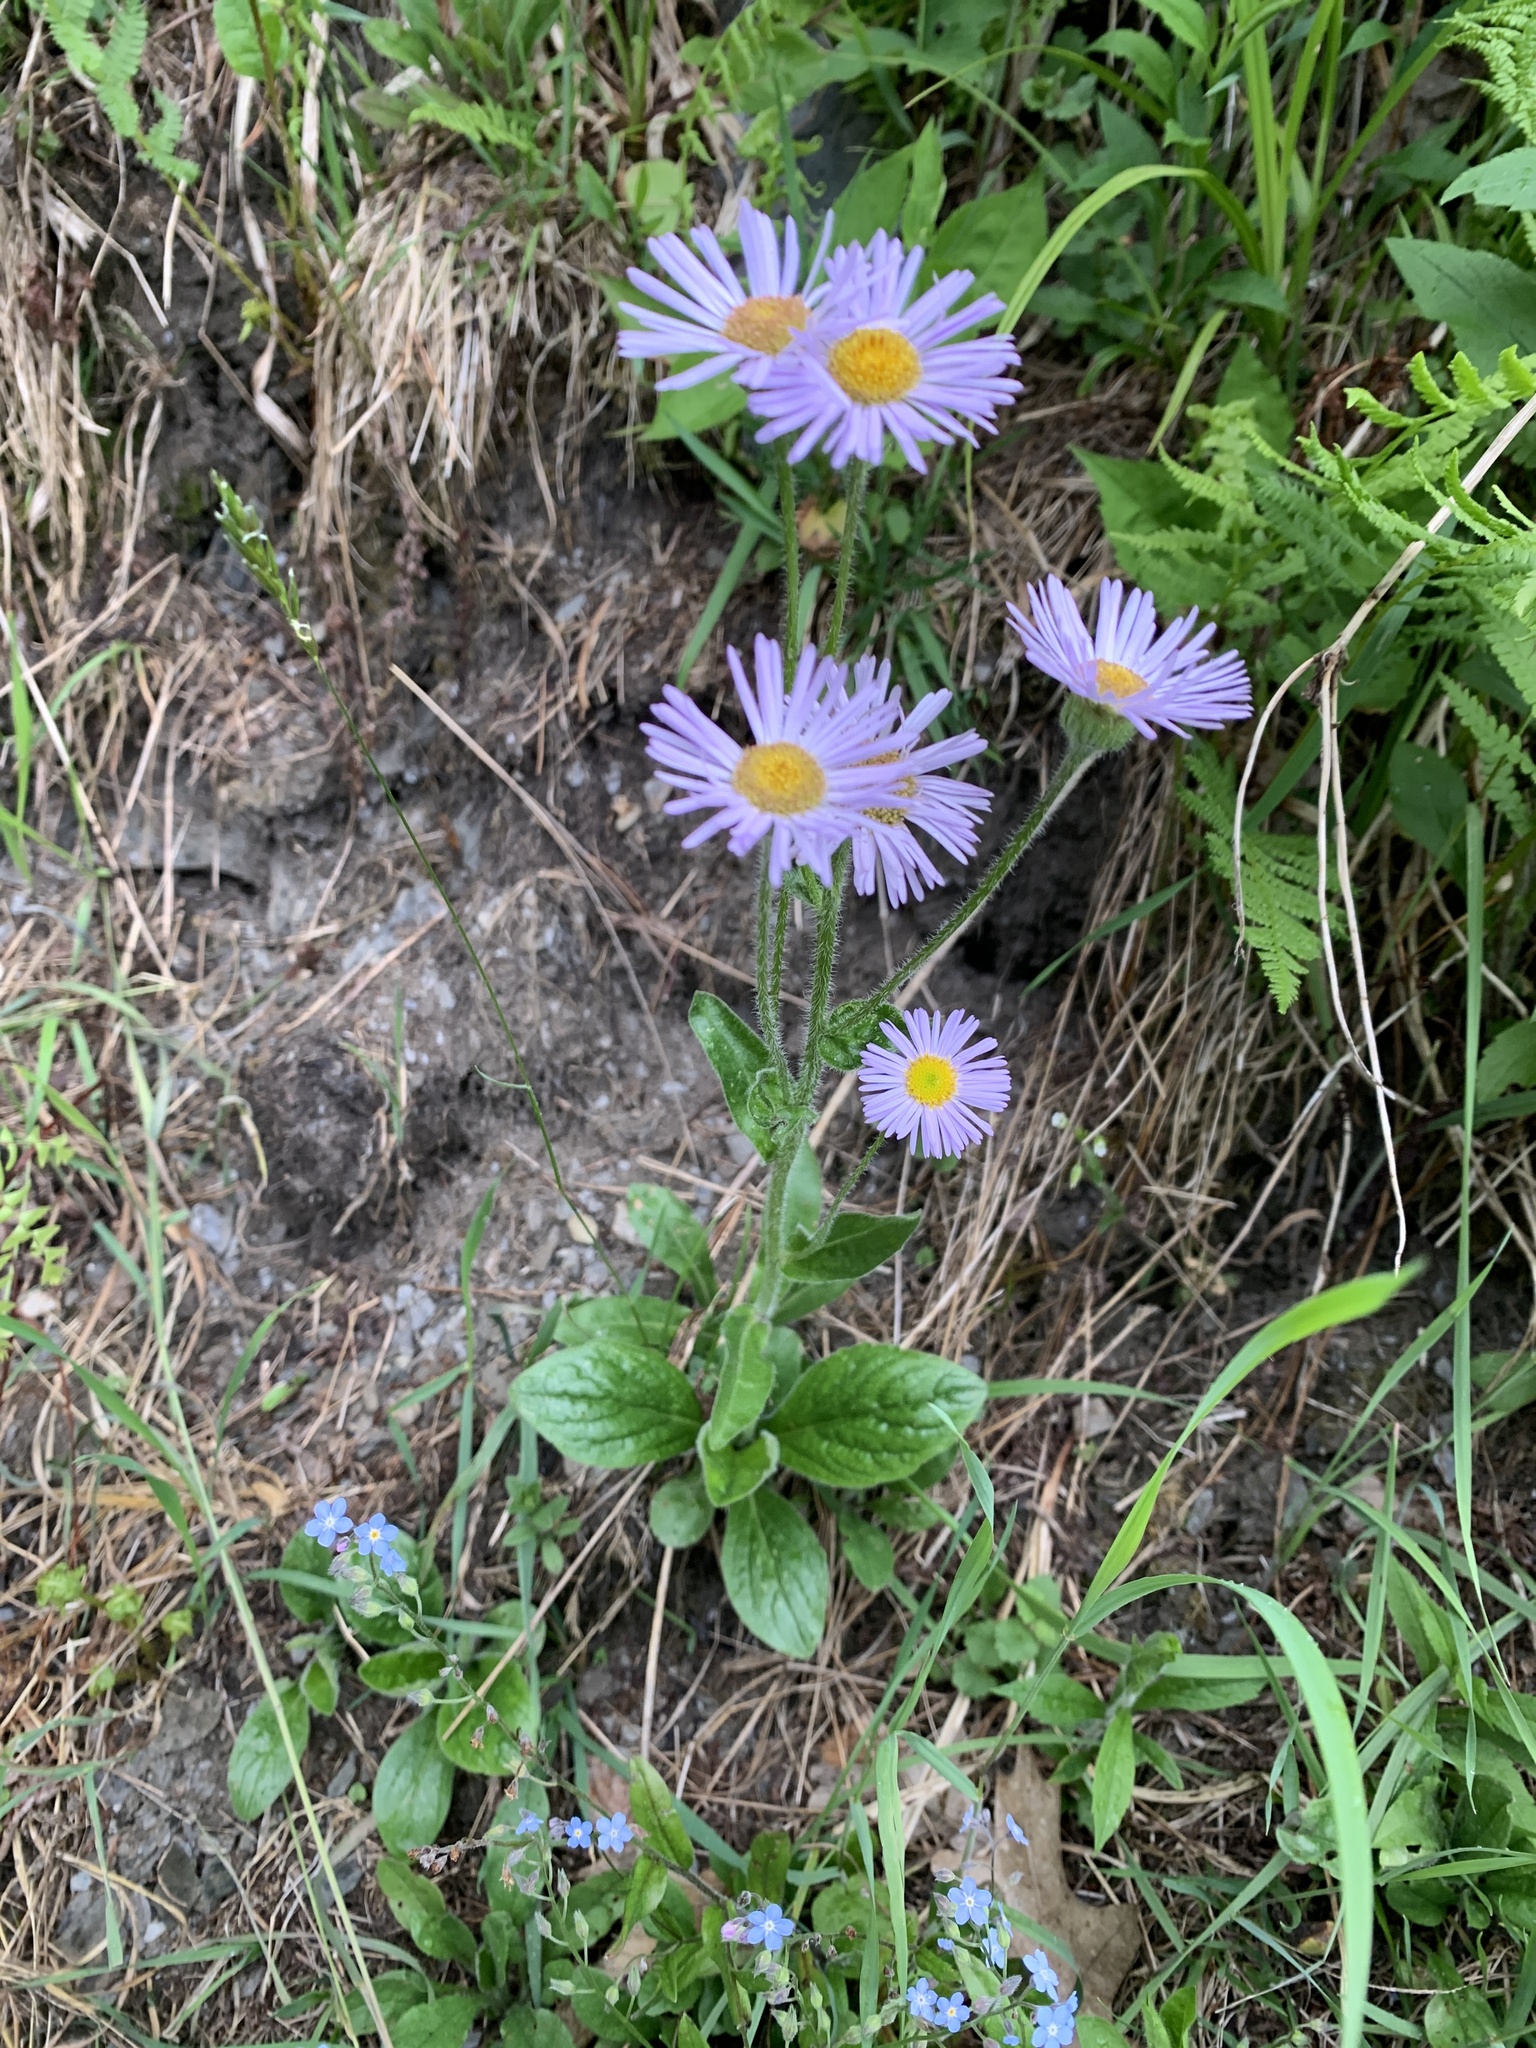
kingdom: Plantae
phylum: Tracheophyta
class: Magnoliopsida
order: Asterales
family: Asteraceae
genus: Erigeron
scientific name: Erigeron pulchellus
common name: Hairy fleabane
